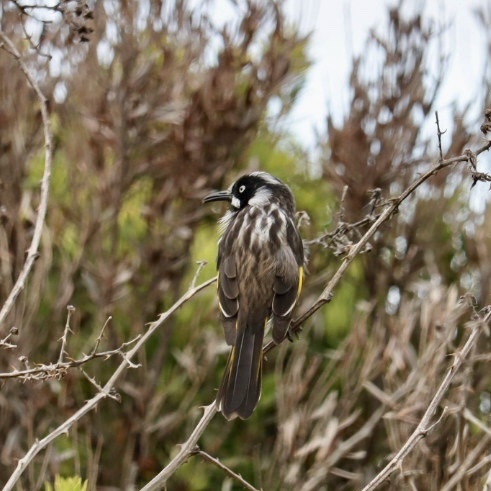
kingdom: Animalia
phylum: Chordata
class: Aves
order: Passeriformes
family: Meliphagidae
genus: Phylidonyris
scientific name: Phylidonyris novaehollandiae
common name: New holland honeyeater
